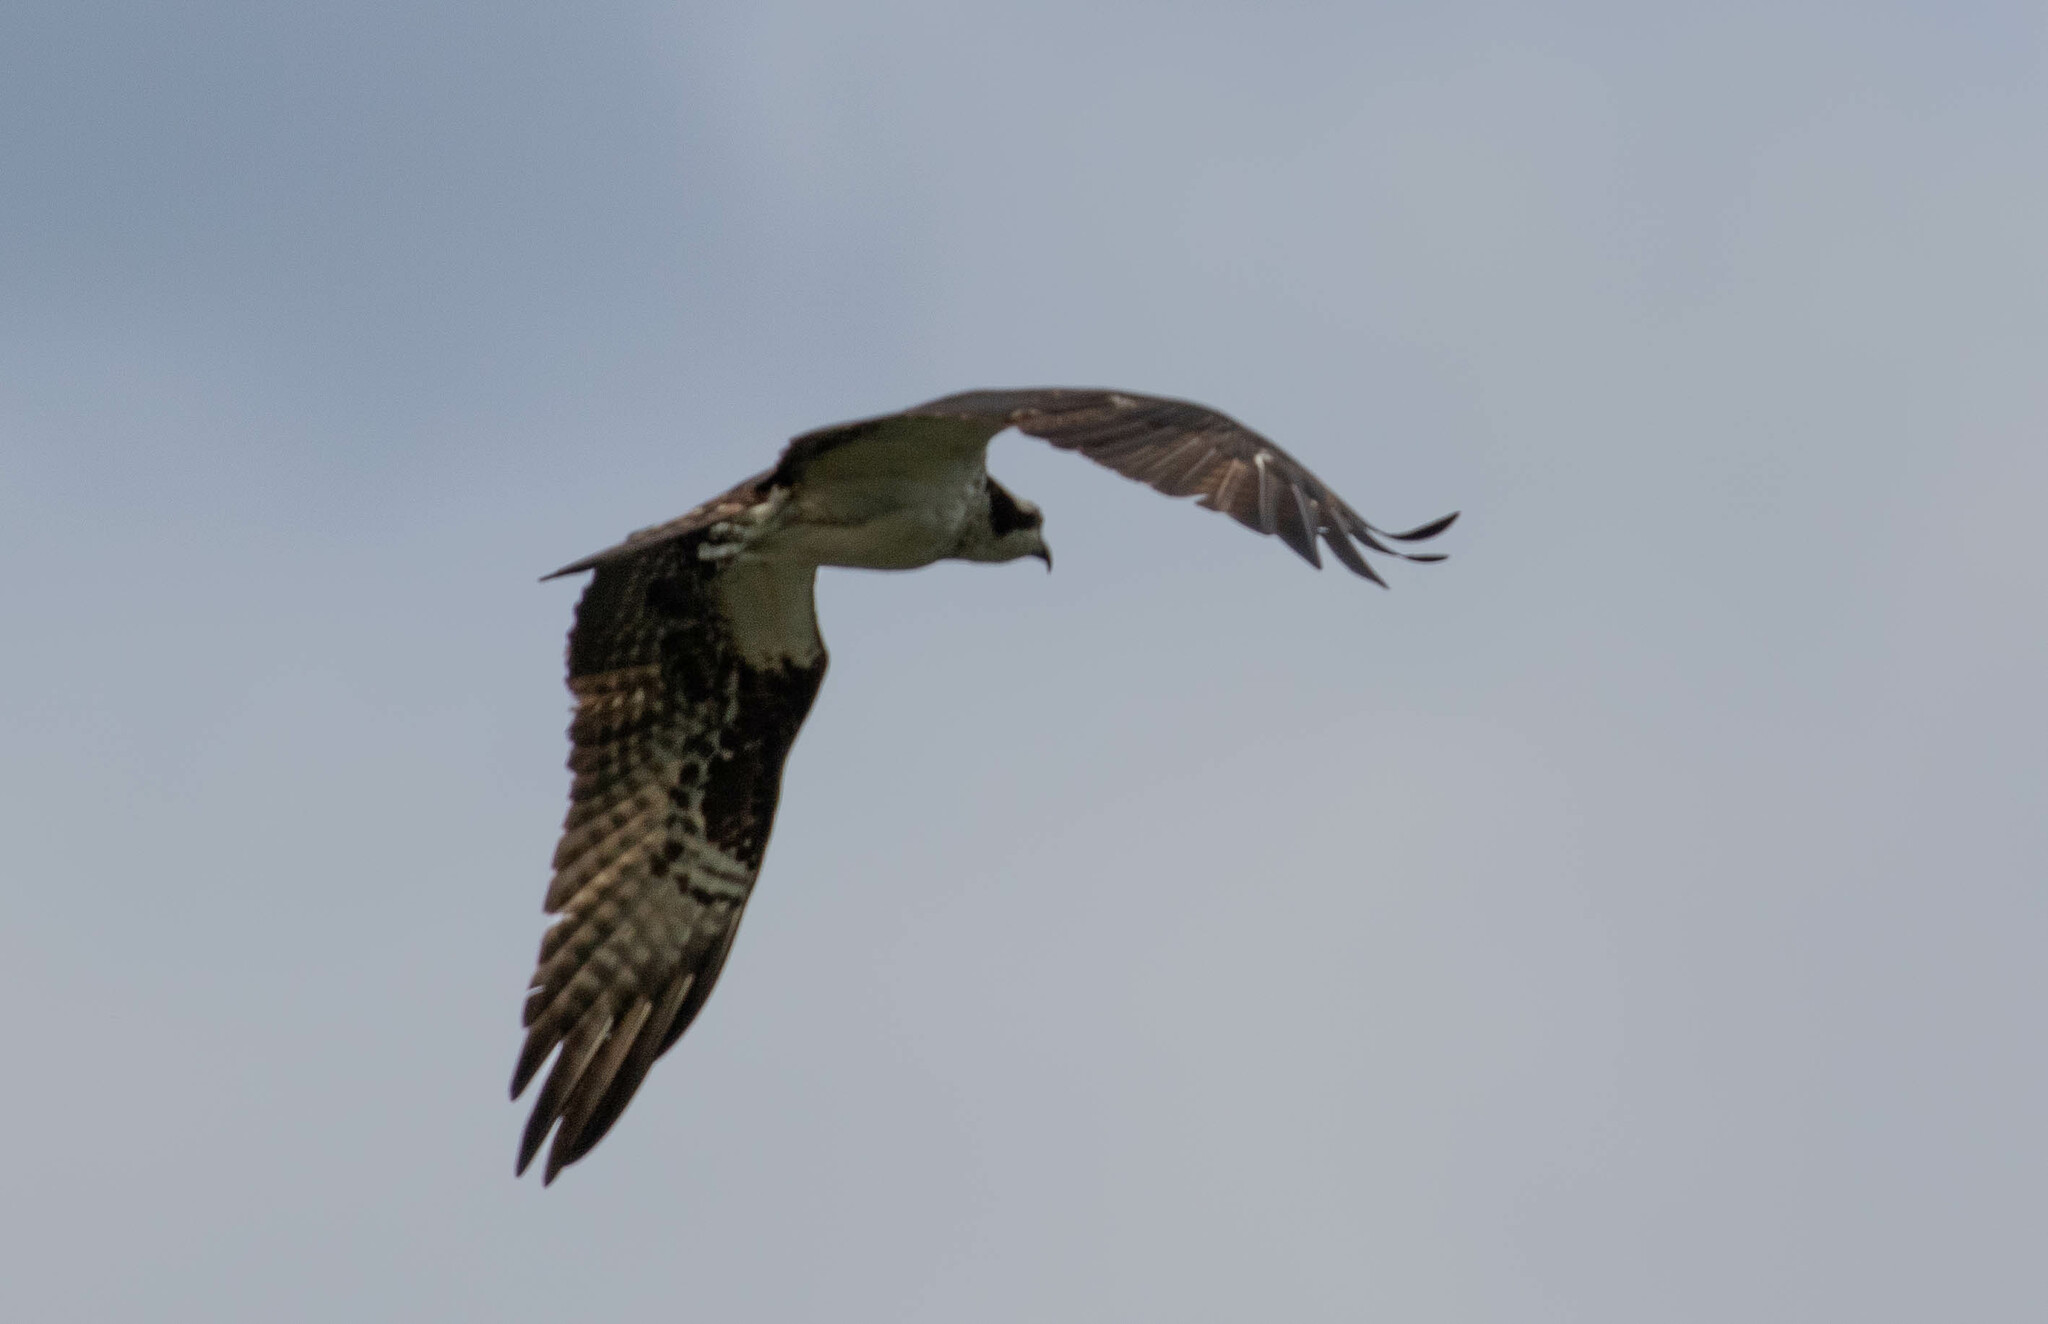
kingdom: Animalia
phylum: Chordata
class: Aves
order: Accipitriformes
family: Pandionidae
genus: Pandion
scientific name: Pandion haliaetus
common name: Osprey
